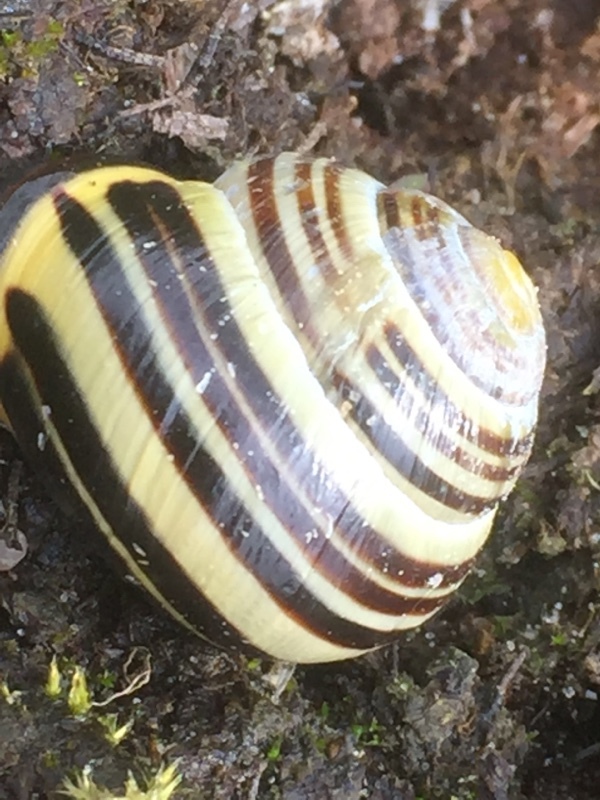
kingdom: Animalia
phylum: Mollusca
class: Gastropoda
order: Stylommatophora
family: Helicidae
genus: Cepaea
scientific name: Cepaea nemoralis
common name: Grovesnail
